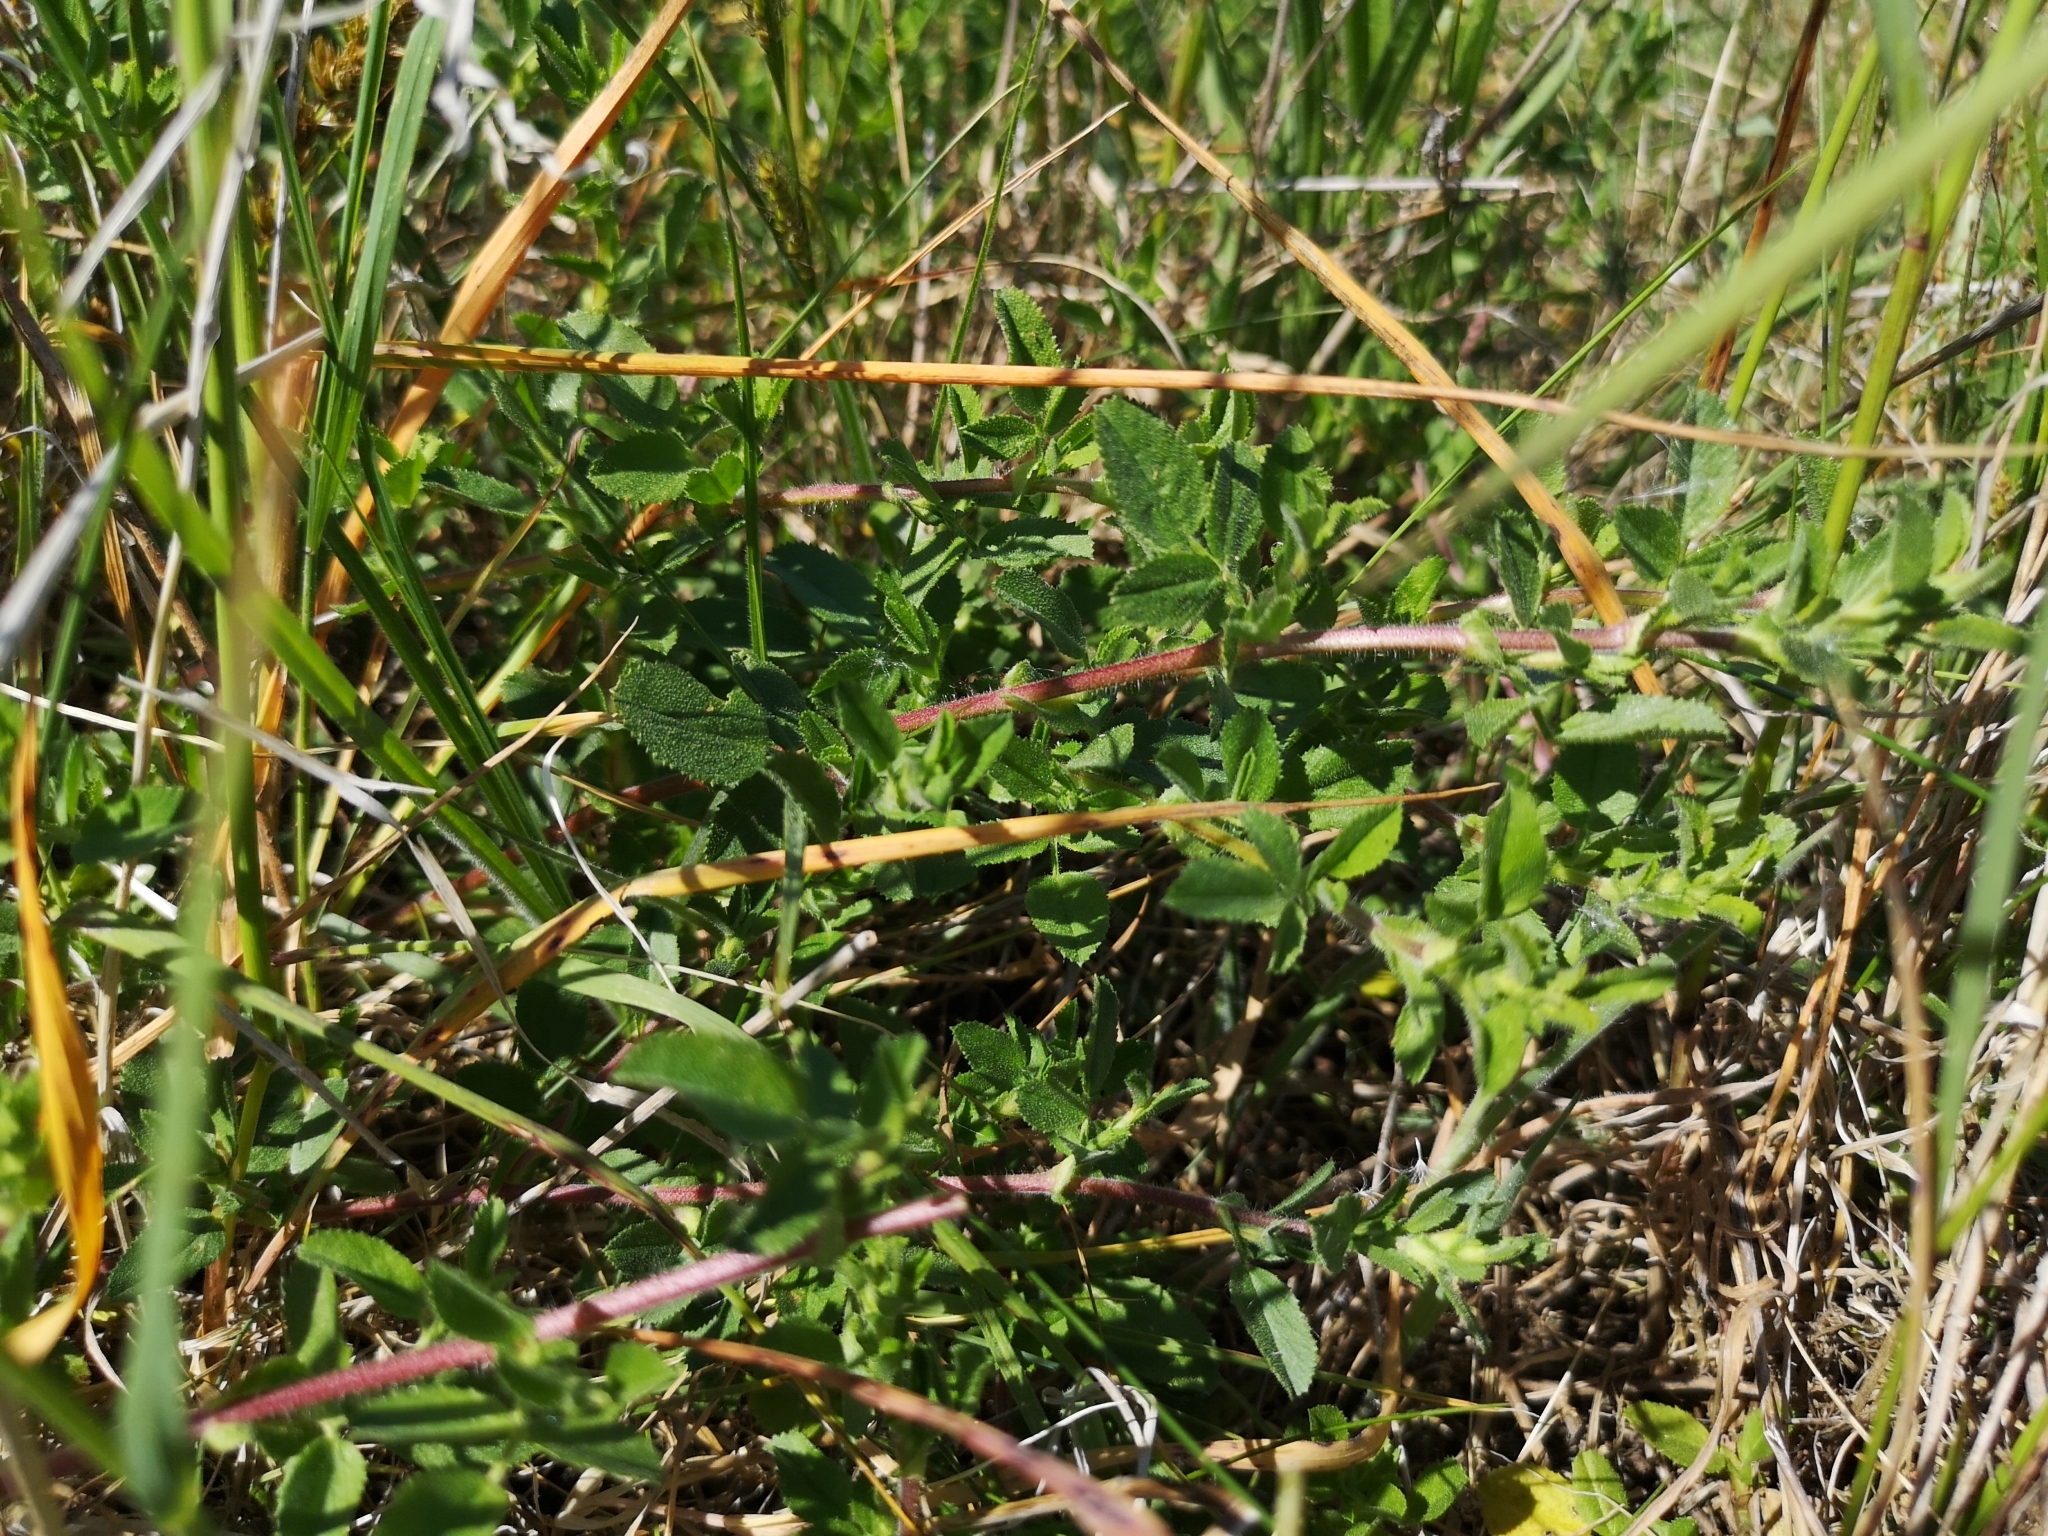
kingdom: Plantae
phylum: Tracheophyta
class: Magnoliopsida
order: Fabales
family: Fabaceae
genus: Ononis
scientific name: Ononis spinosa
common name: Spiny restharrow
